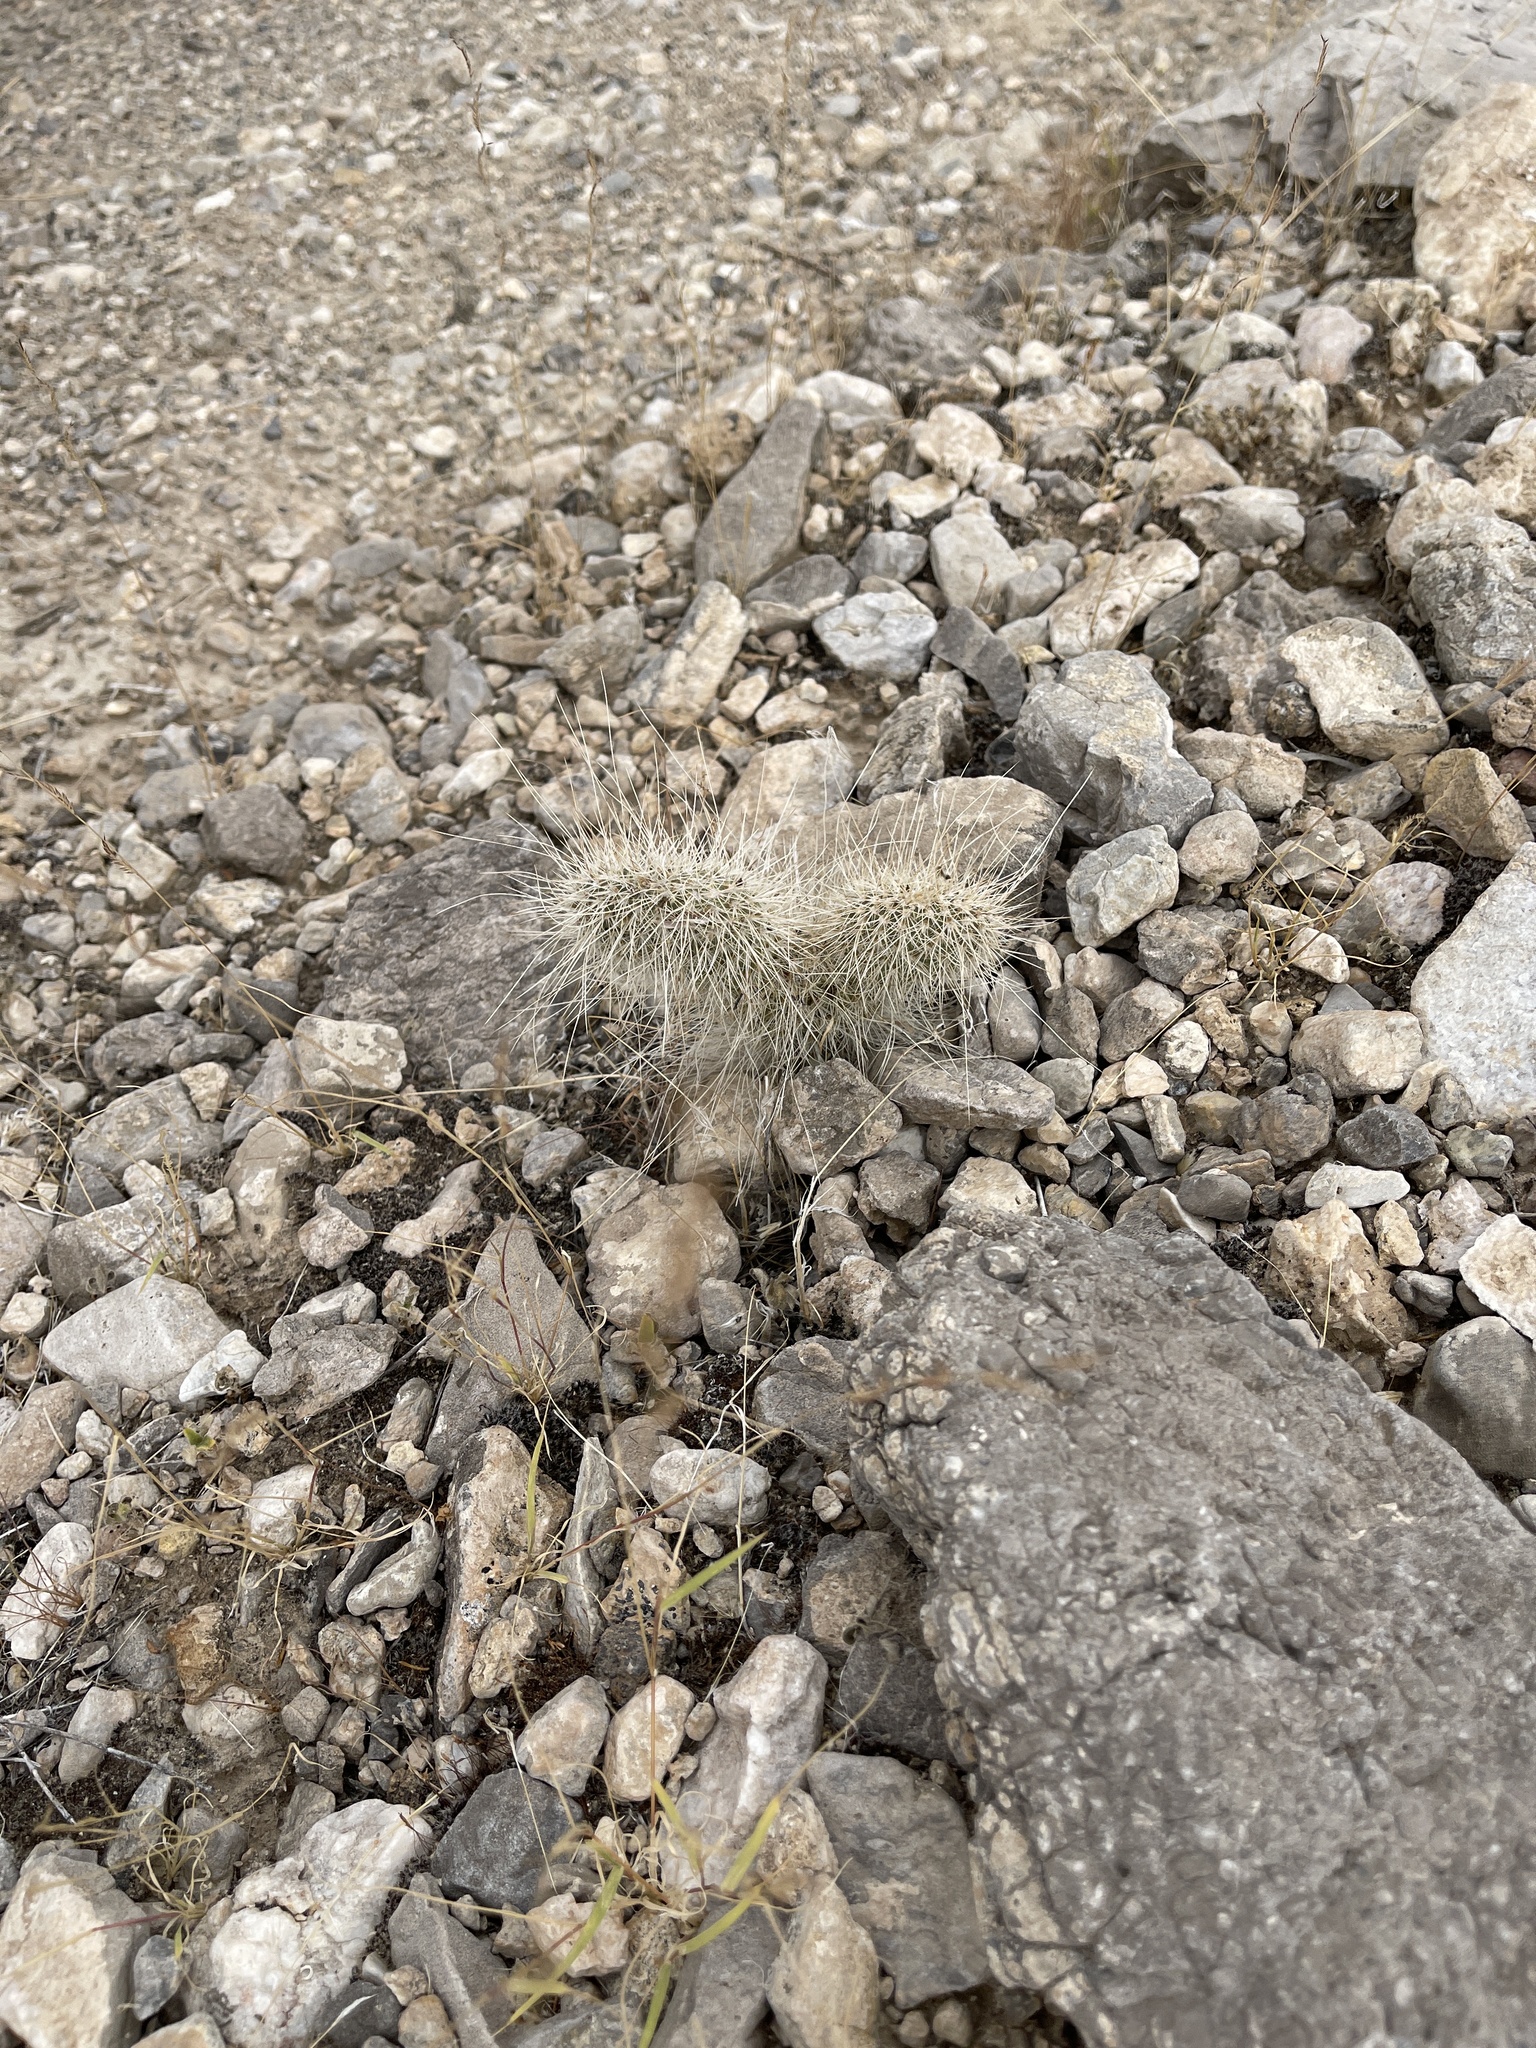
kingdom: Plantae
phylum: Tracheophyta
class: Magnoliopsida
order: Caryophyllales
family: Cactaceae
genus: Opuntia
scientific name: Opuntia polyacantha
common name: Plains prickly-pear
